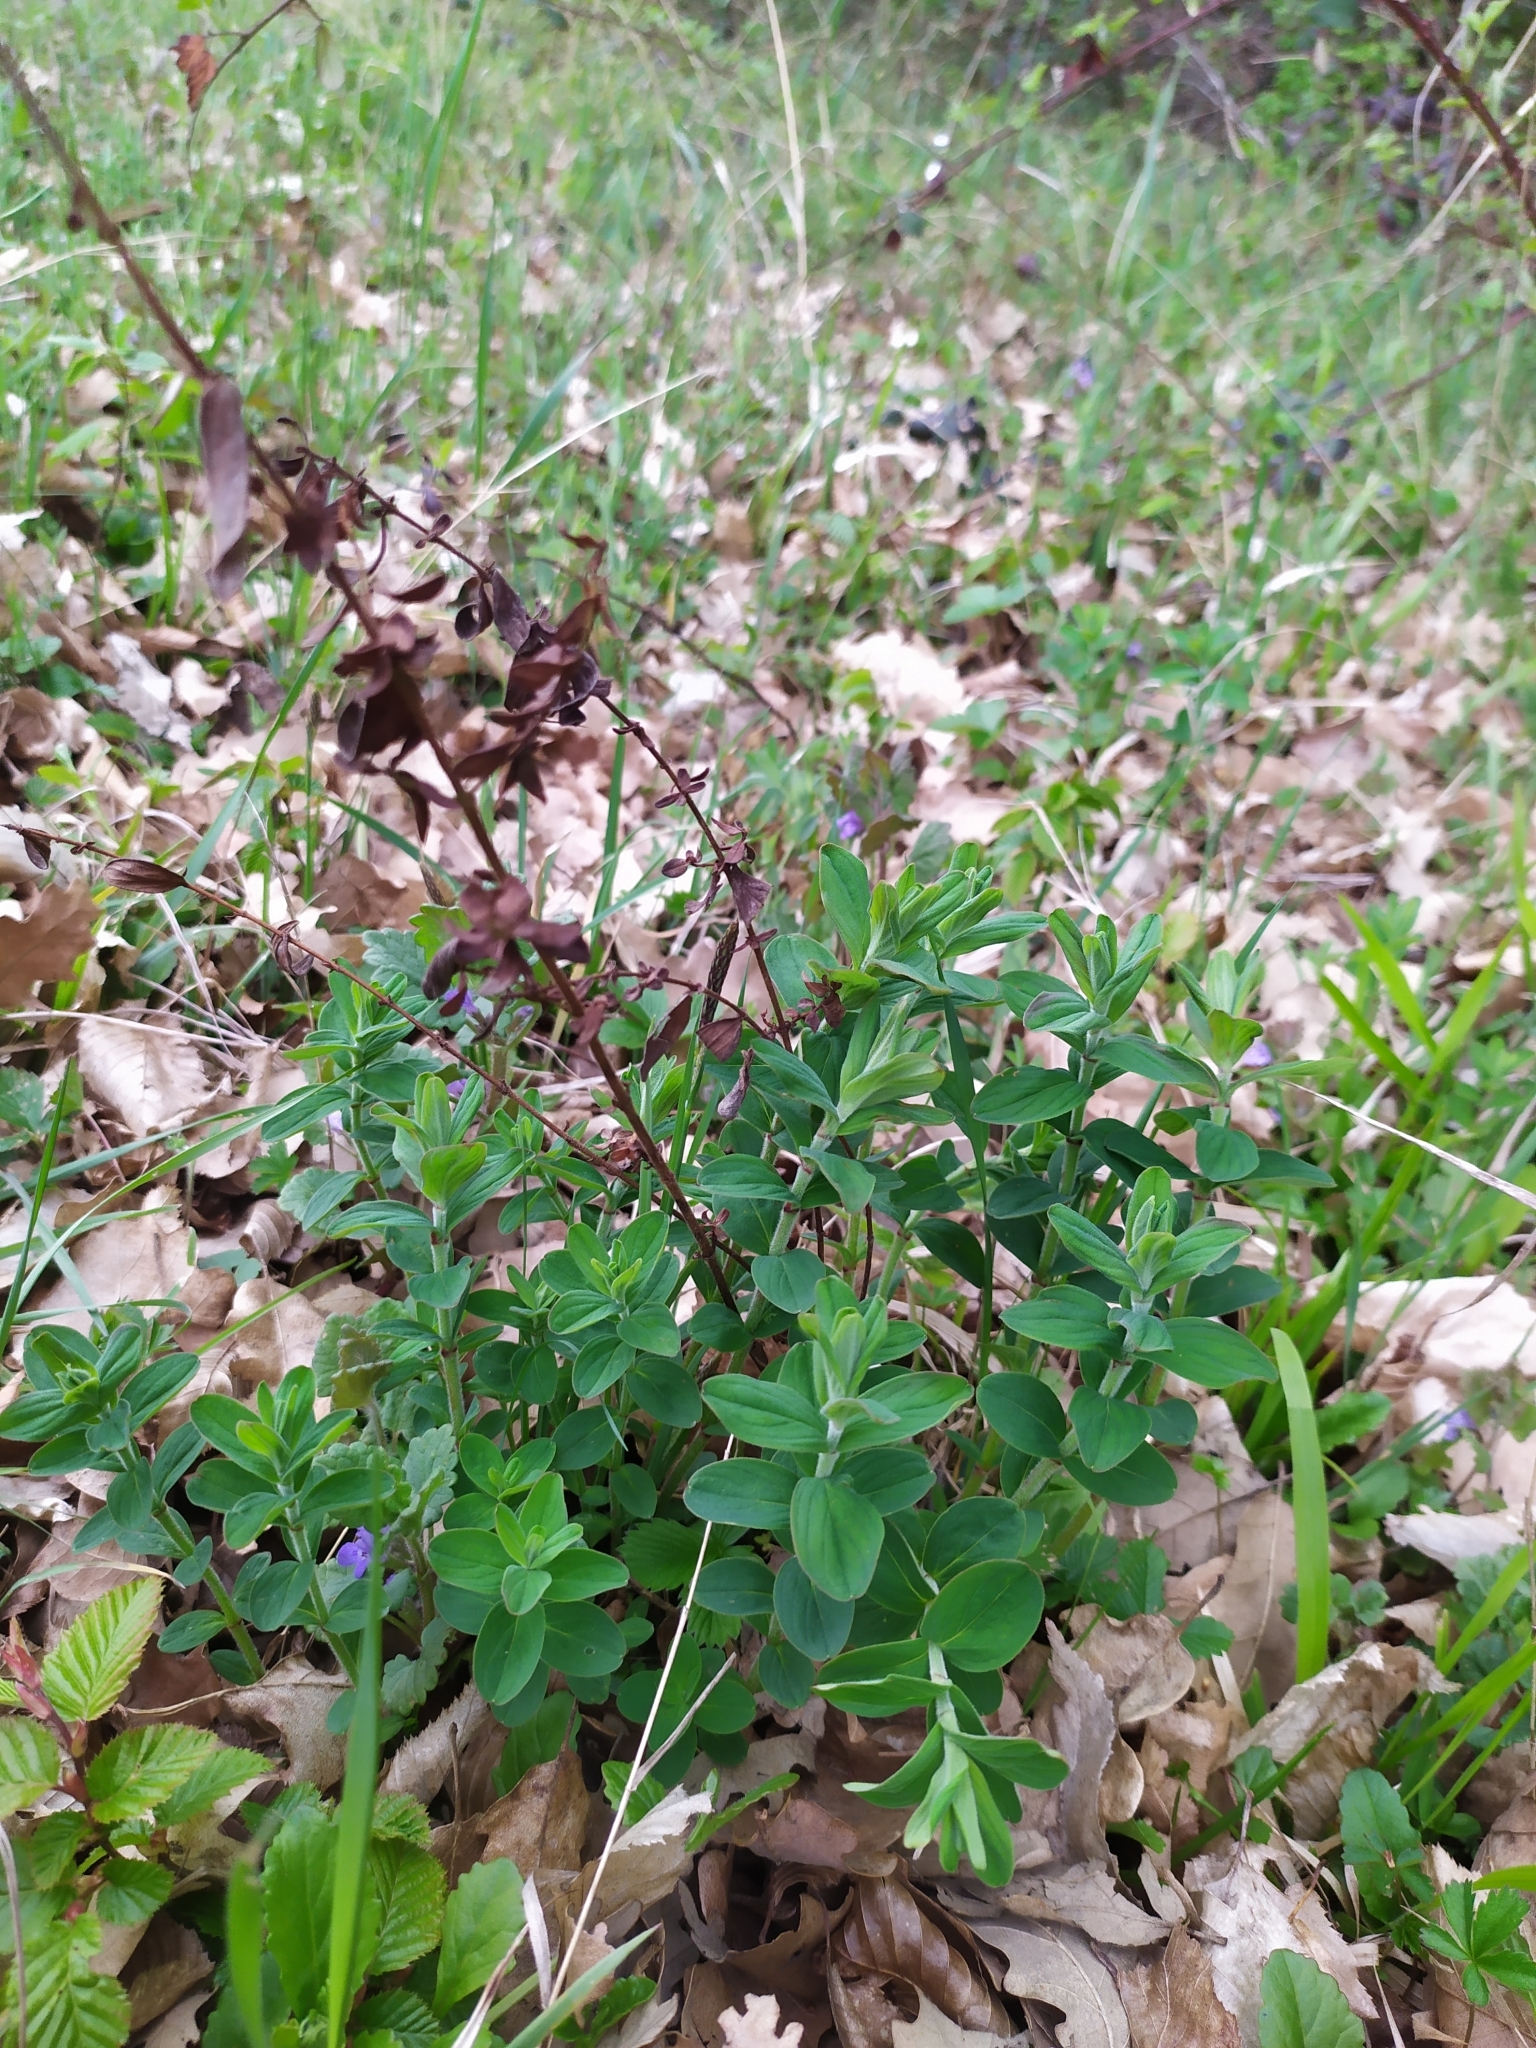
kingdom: Plantae
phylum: Tracheophyta
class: Magnoliopsida
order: Malpighiales
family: Hypericaceae
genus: Hypericum
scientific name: Hypericum hirsutum
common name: Hairy st. john's-wort
